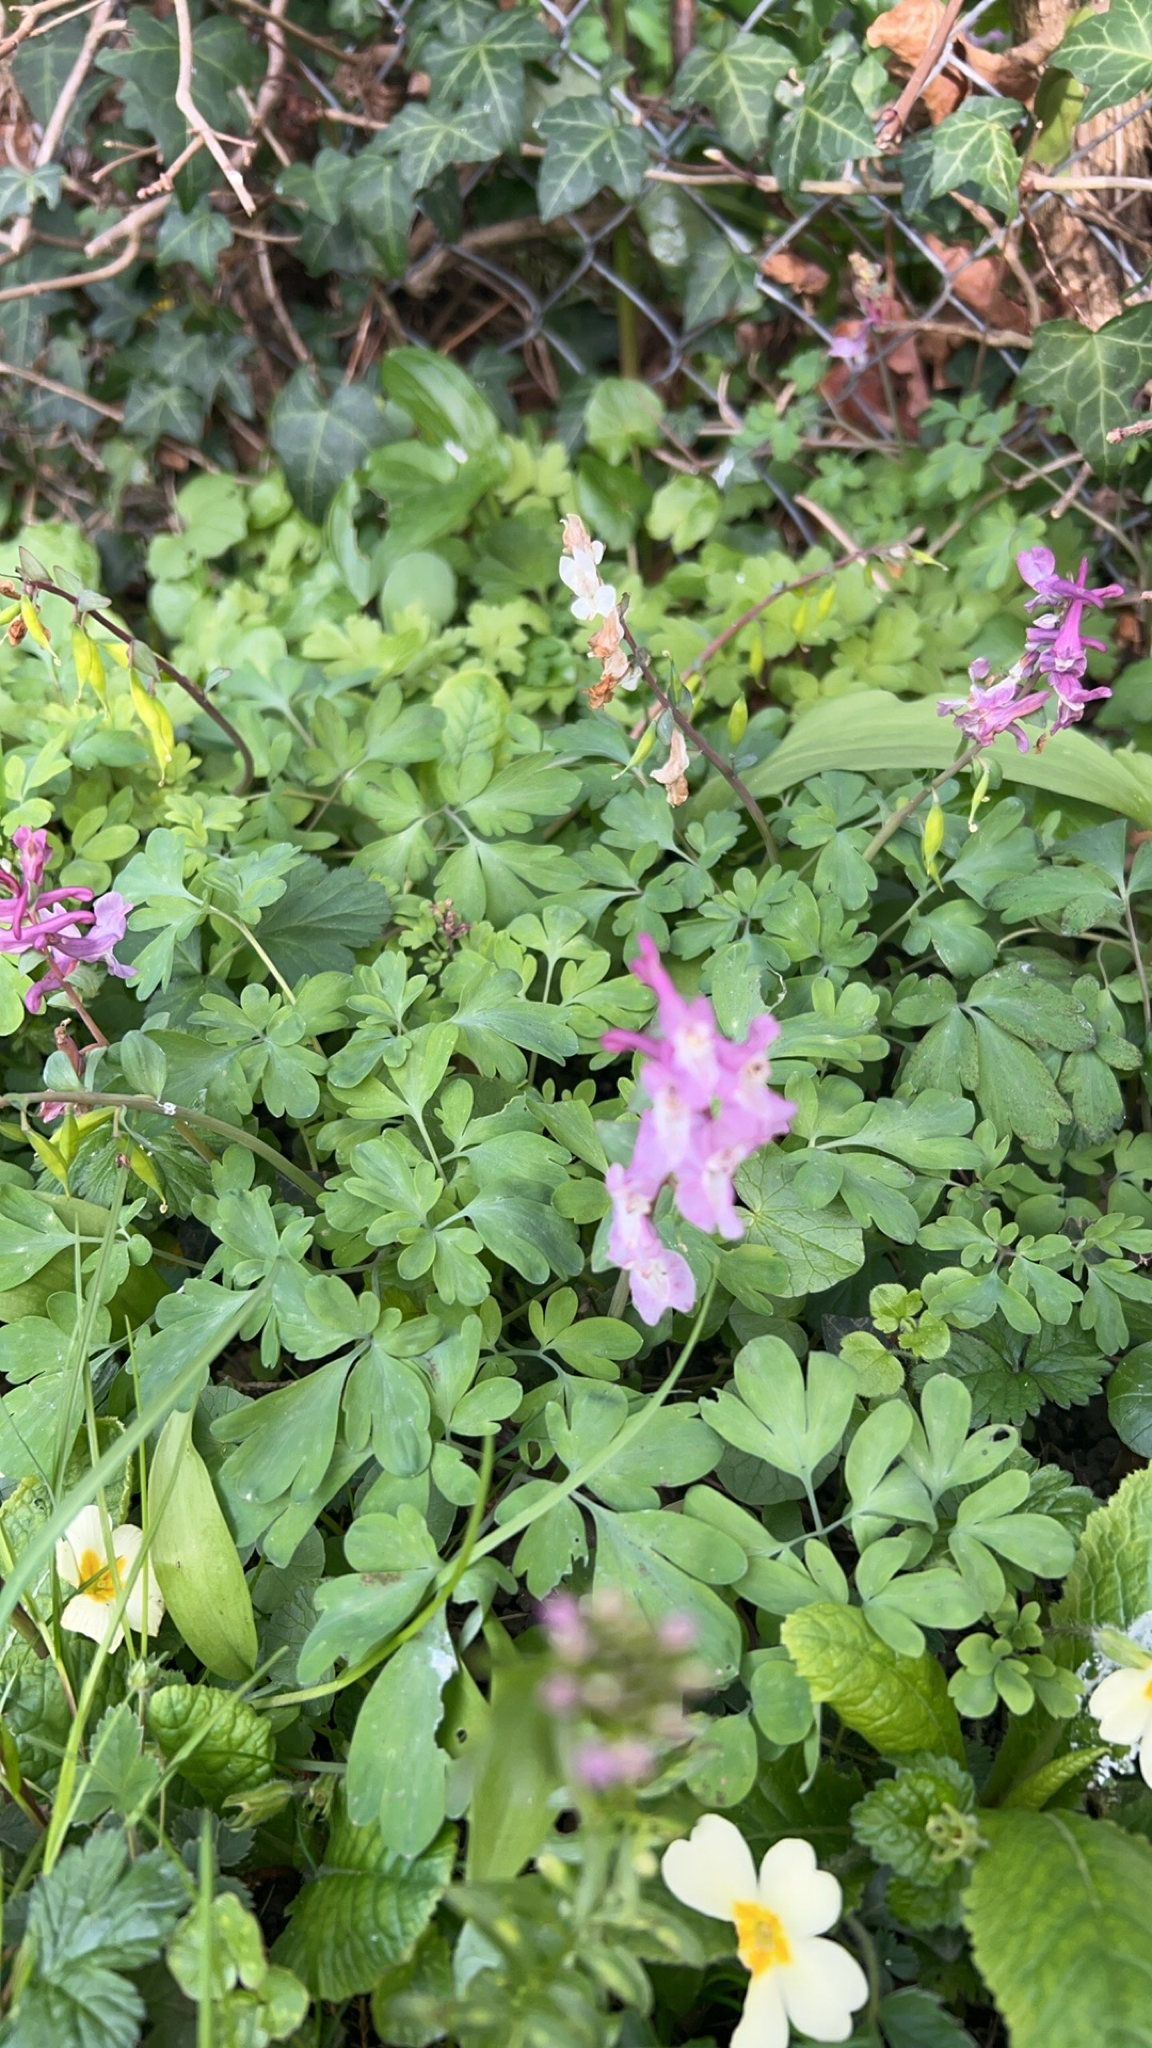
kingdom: Plantae
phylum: Tracheophyta
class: Magnoliopsida
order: Ranunculales
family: Papaveraceae
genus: Corydalis
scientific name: Corydalis cava
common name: Hollowroot
